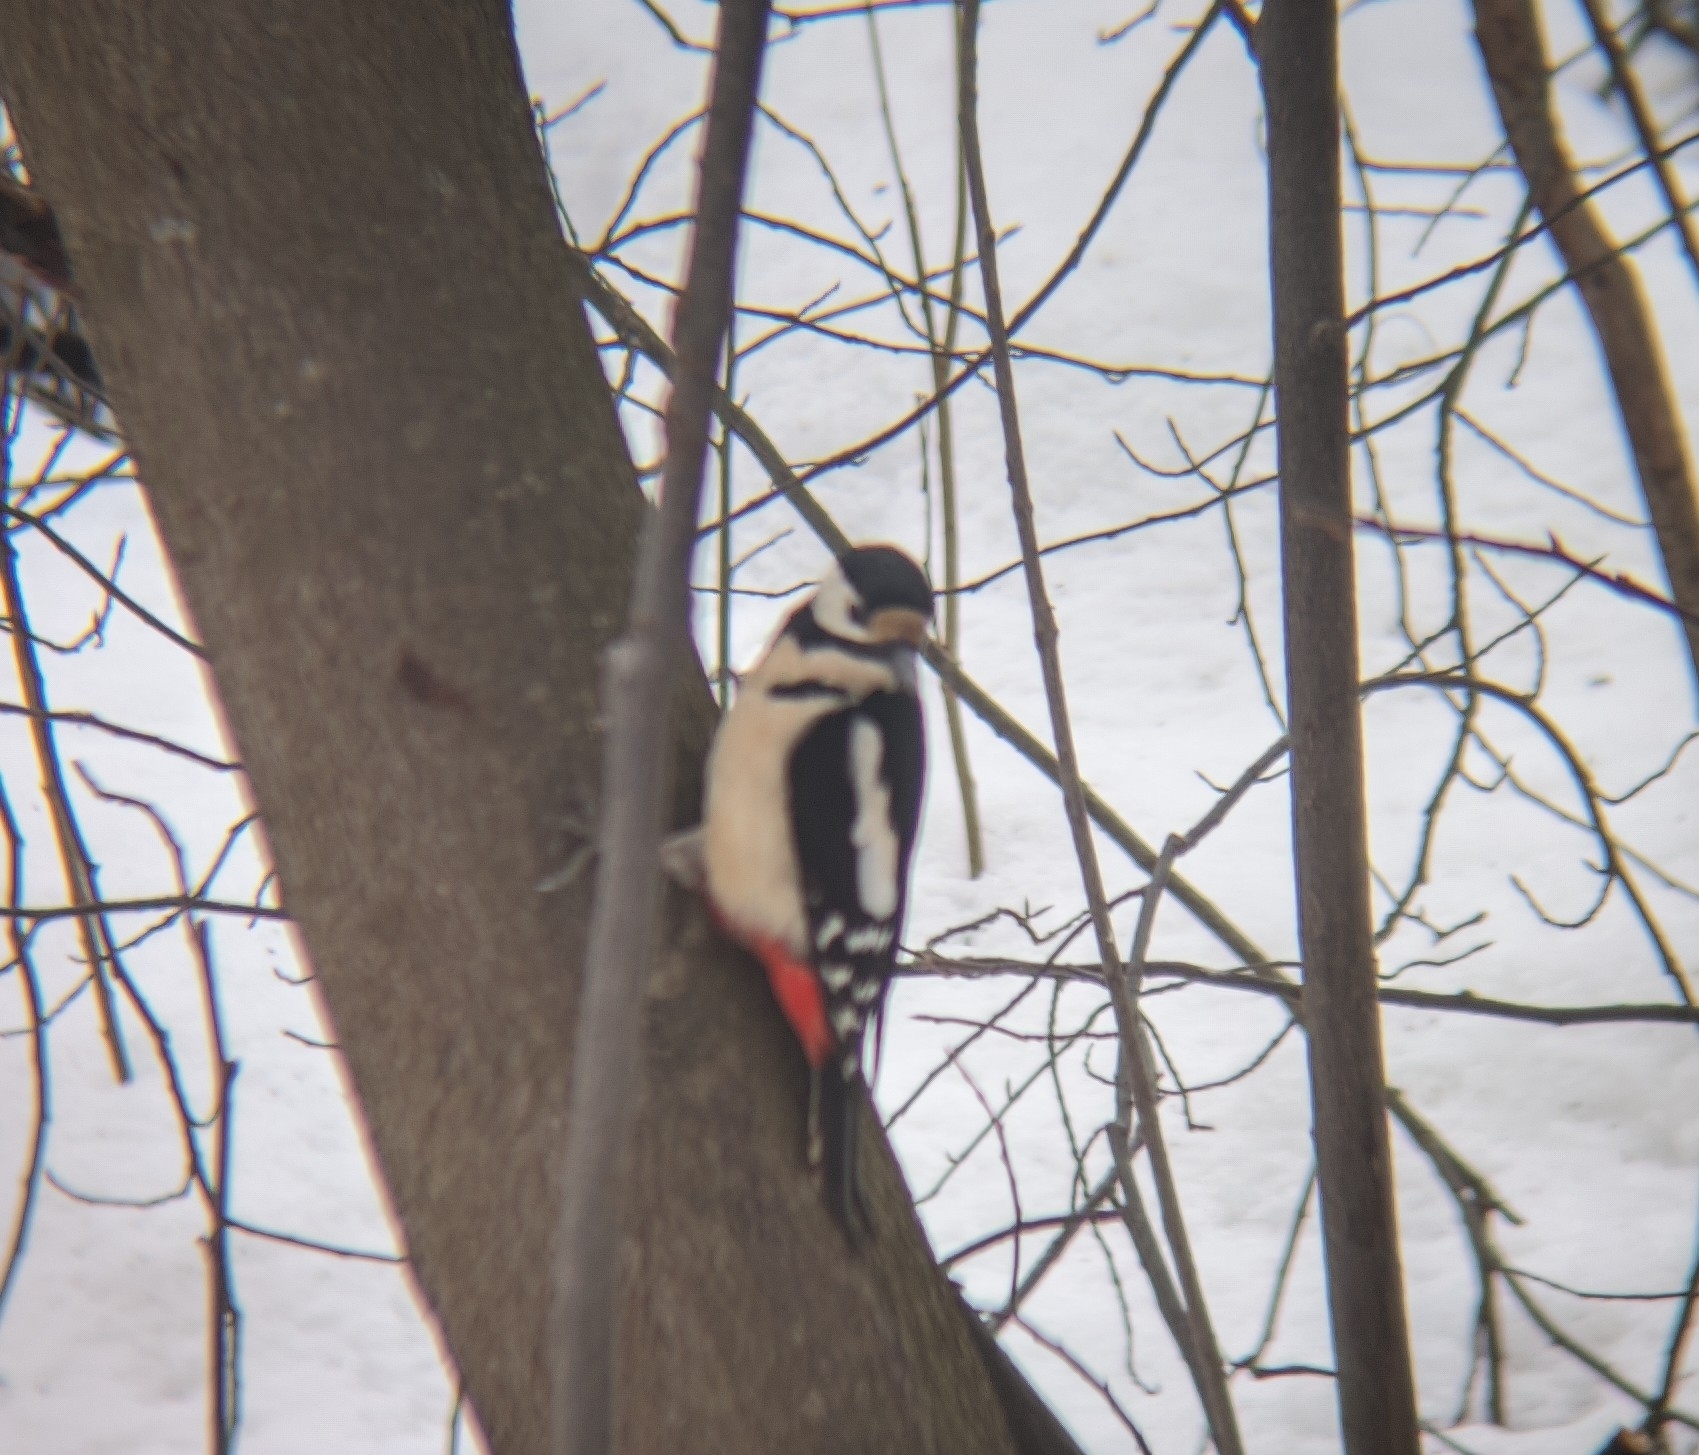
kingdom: Animalia
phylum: Chordata
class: Aves
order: Piciformes
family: Picidae
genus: Dendrocopos
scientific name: Dendrocopos major
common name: Great spotted woodpecker
